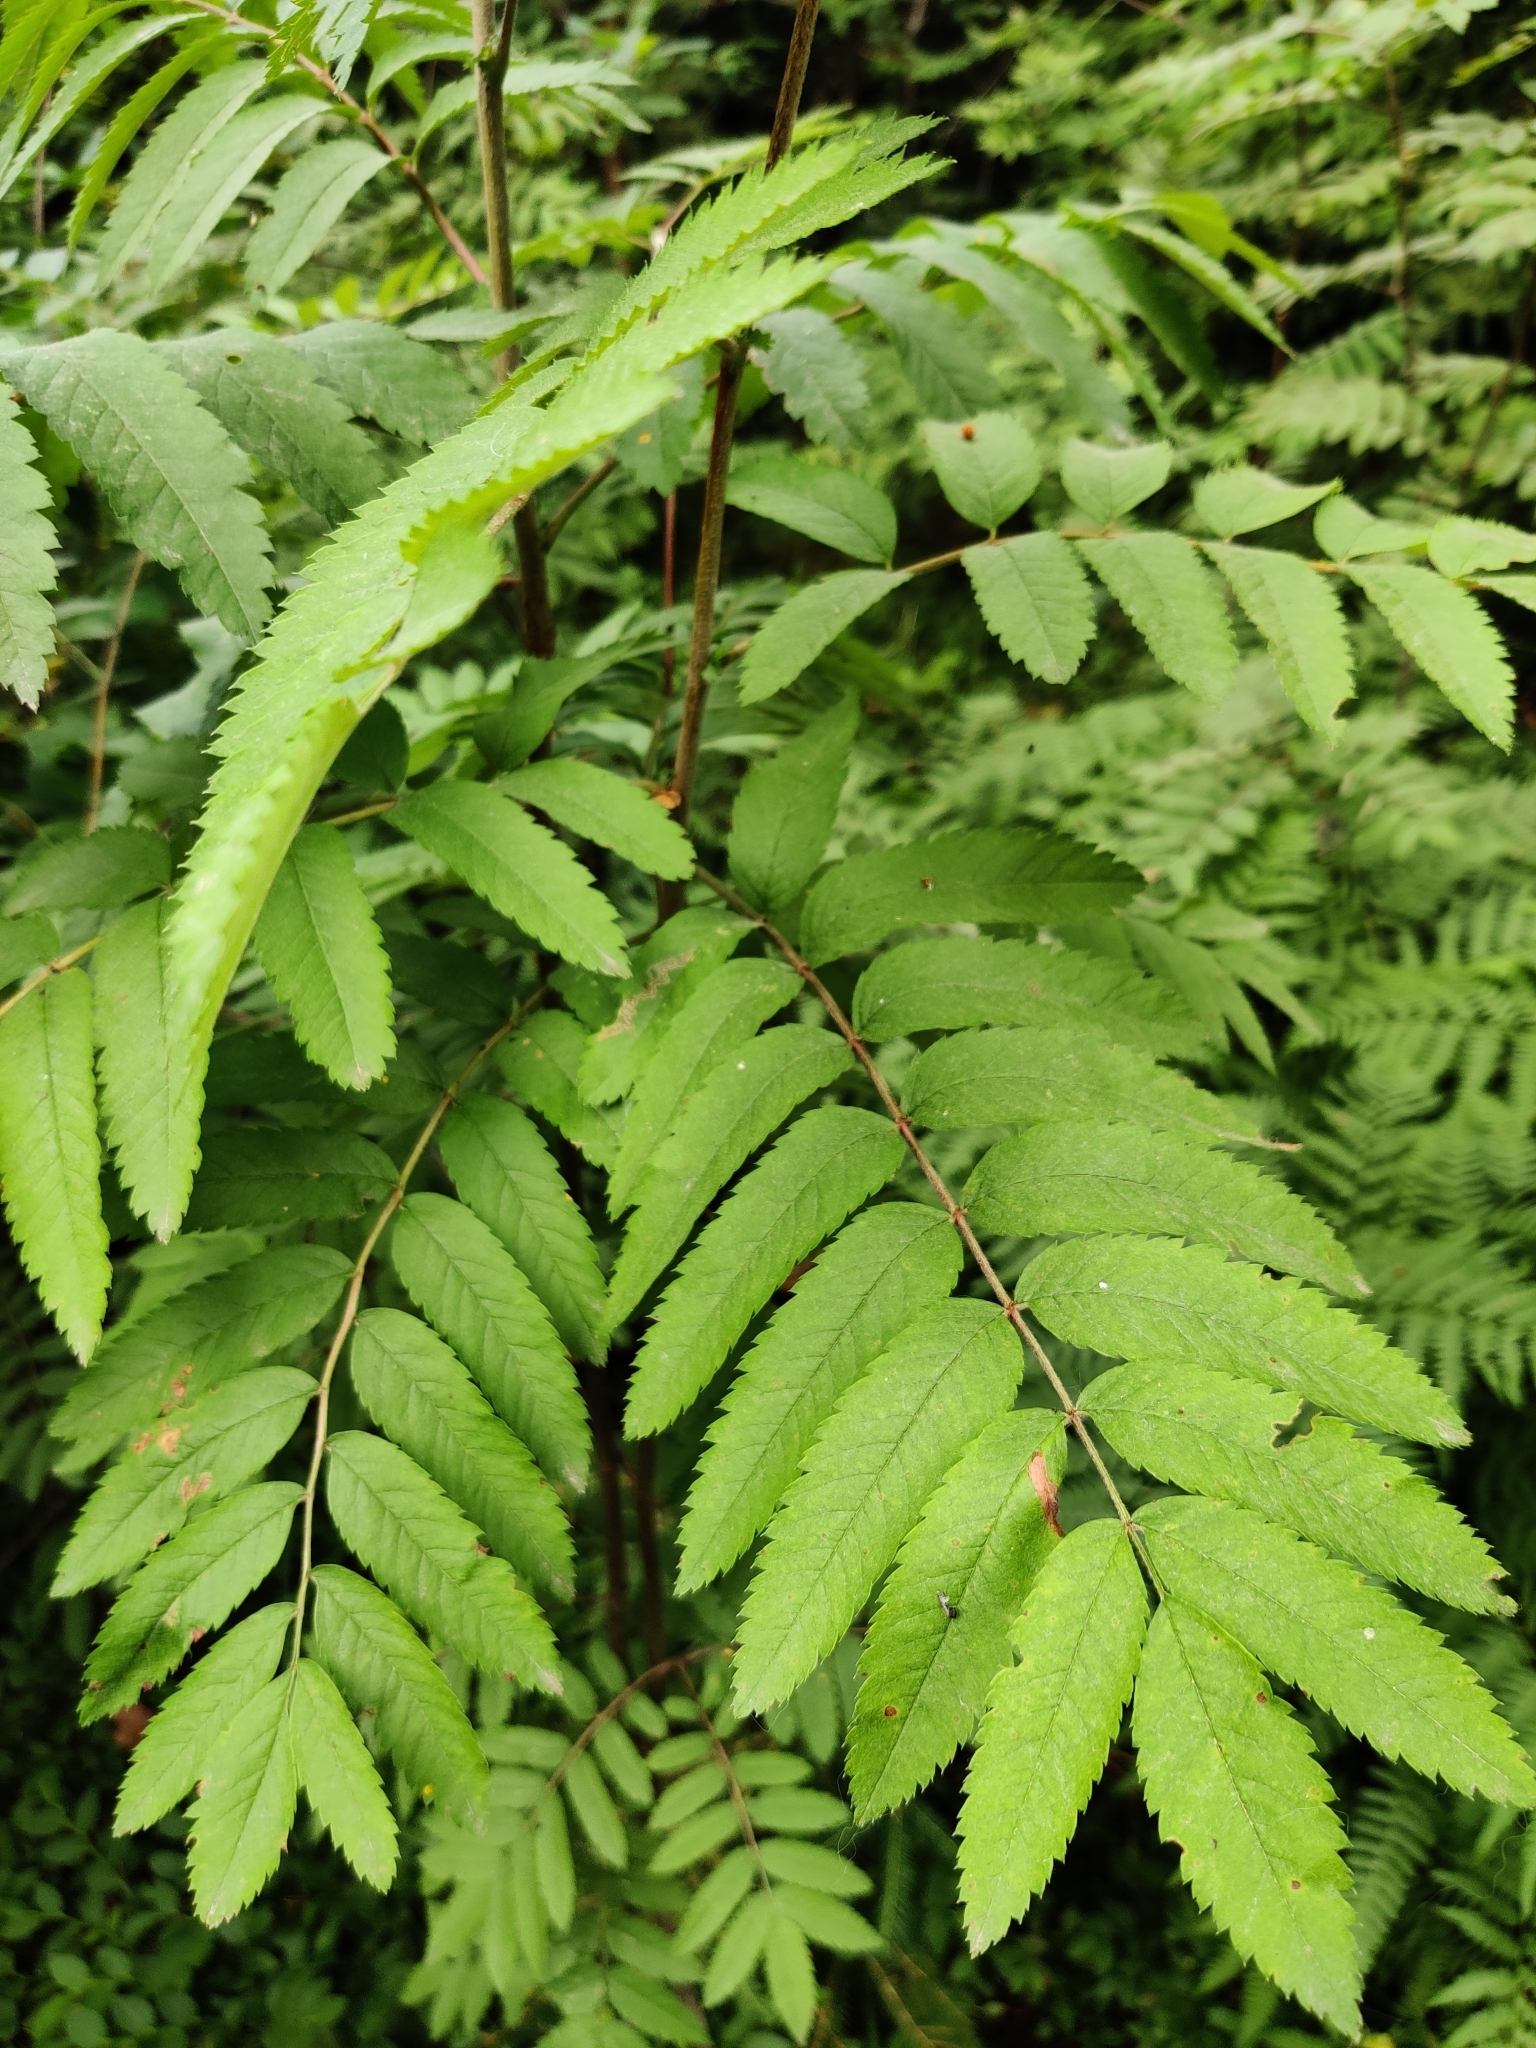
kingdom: Plantae
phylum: Tracheophyta
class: Magnoliopsida
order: Rosales
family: Rosaceae
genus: Sorbus
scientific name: Sorbus aucuparia
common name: Rowan
